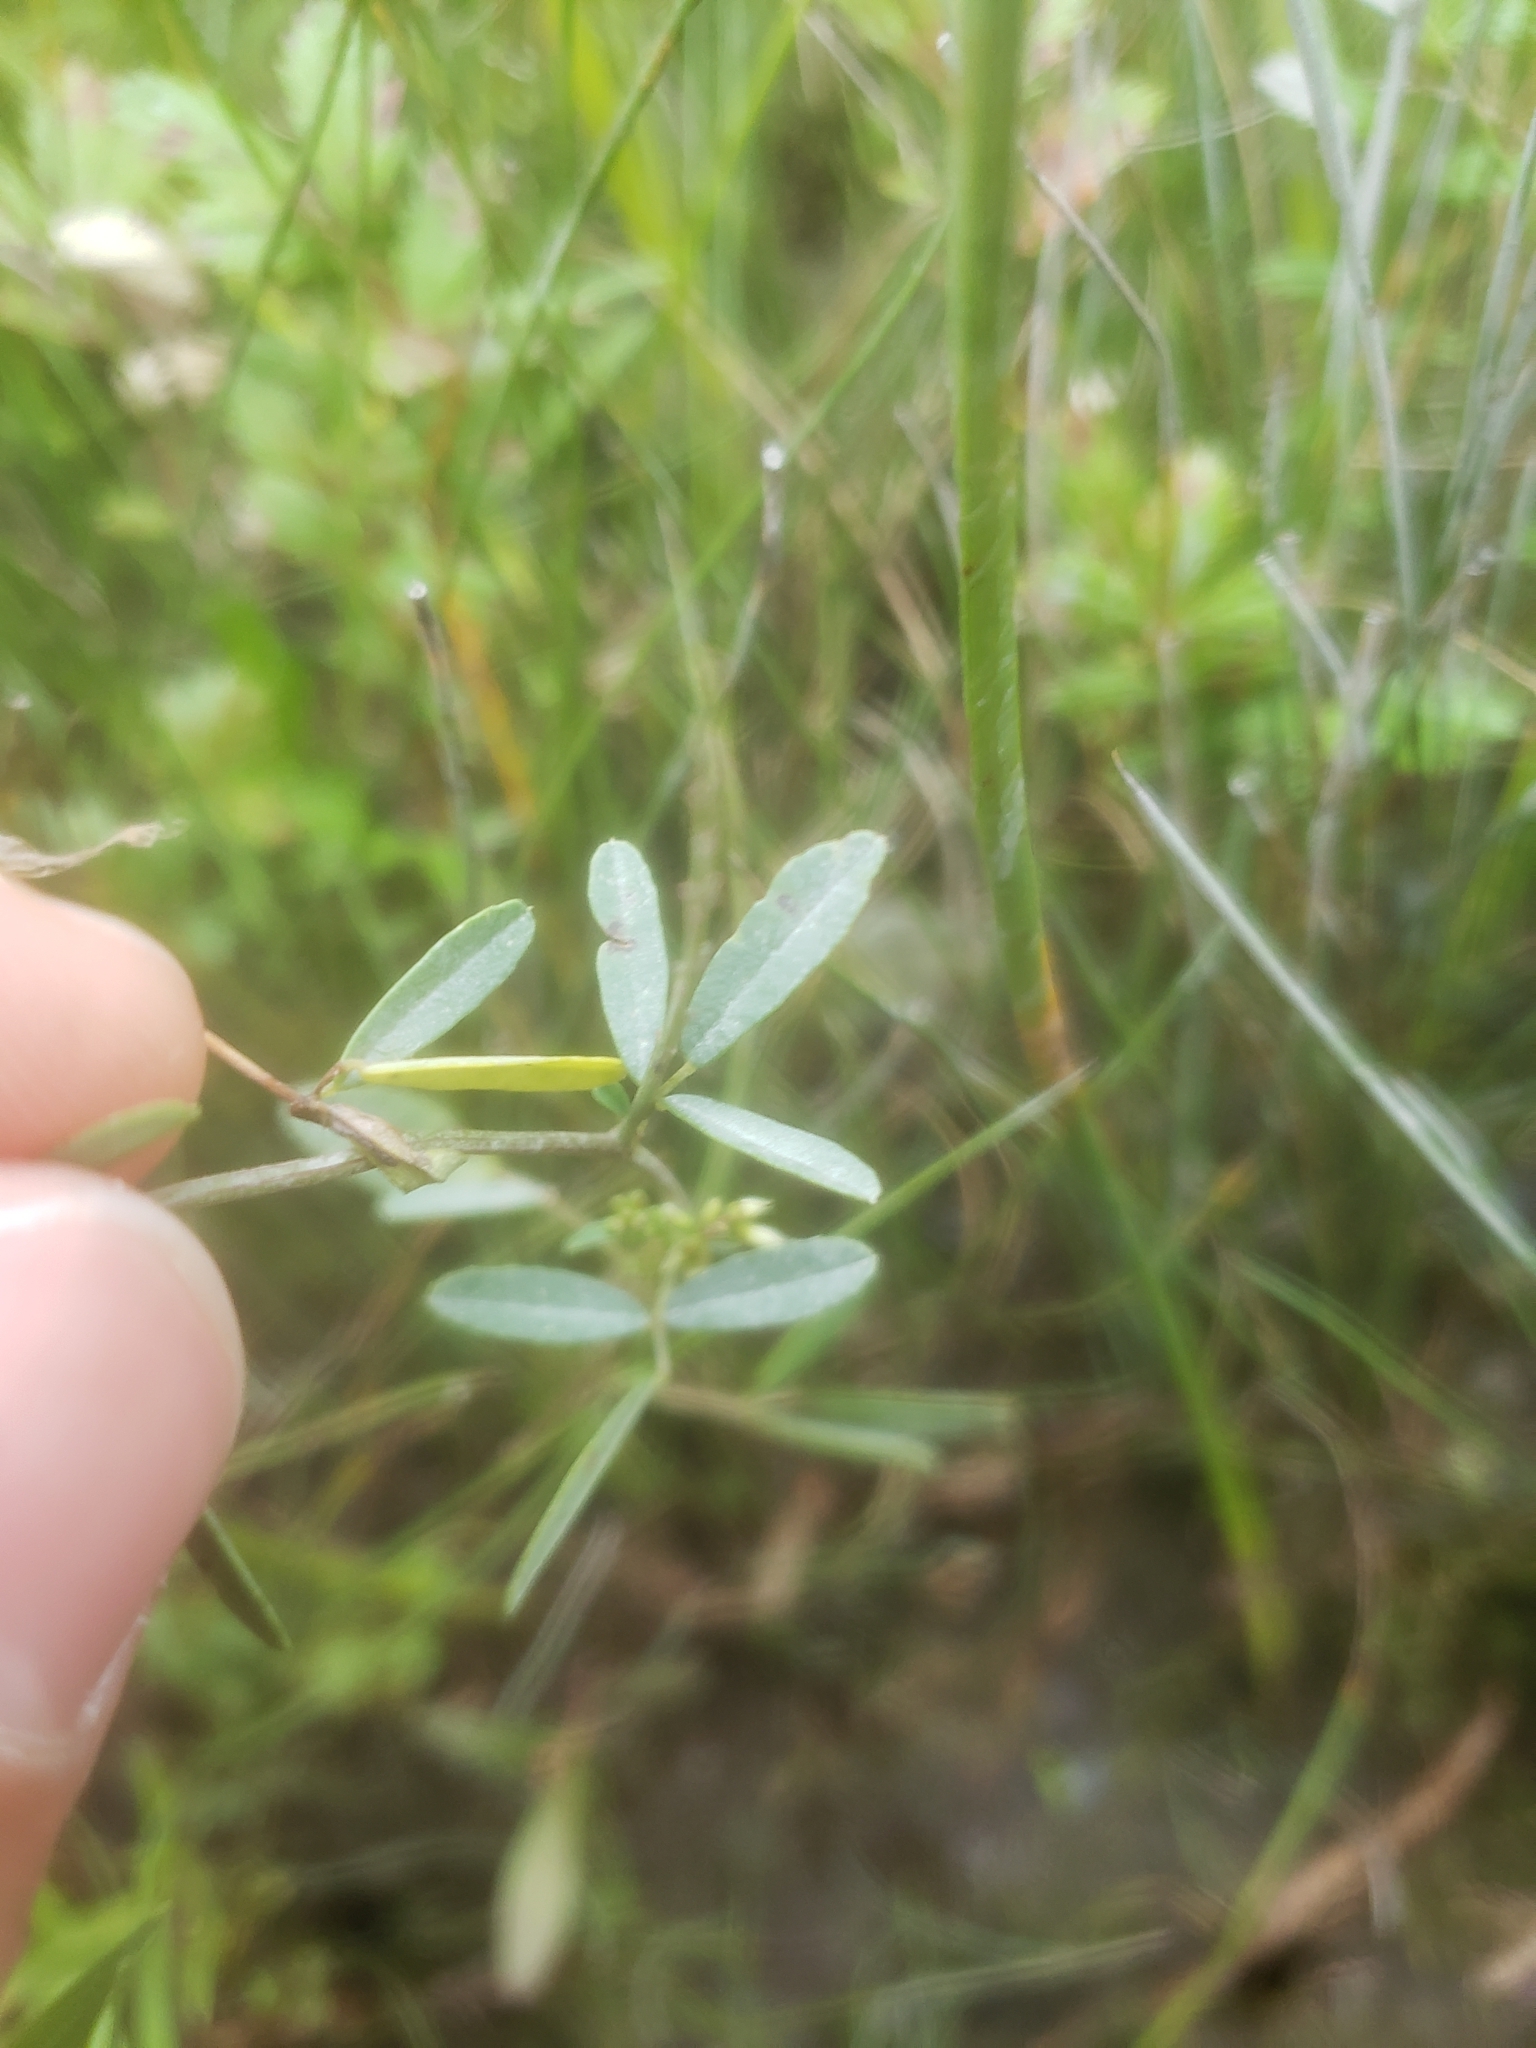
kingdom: Plantae
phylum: Tracheophyta
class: Magnoliopsida
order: Fabales
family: Fabaceae
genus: Melilotus
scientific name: Melilotus albus
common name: White melilot
